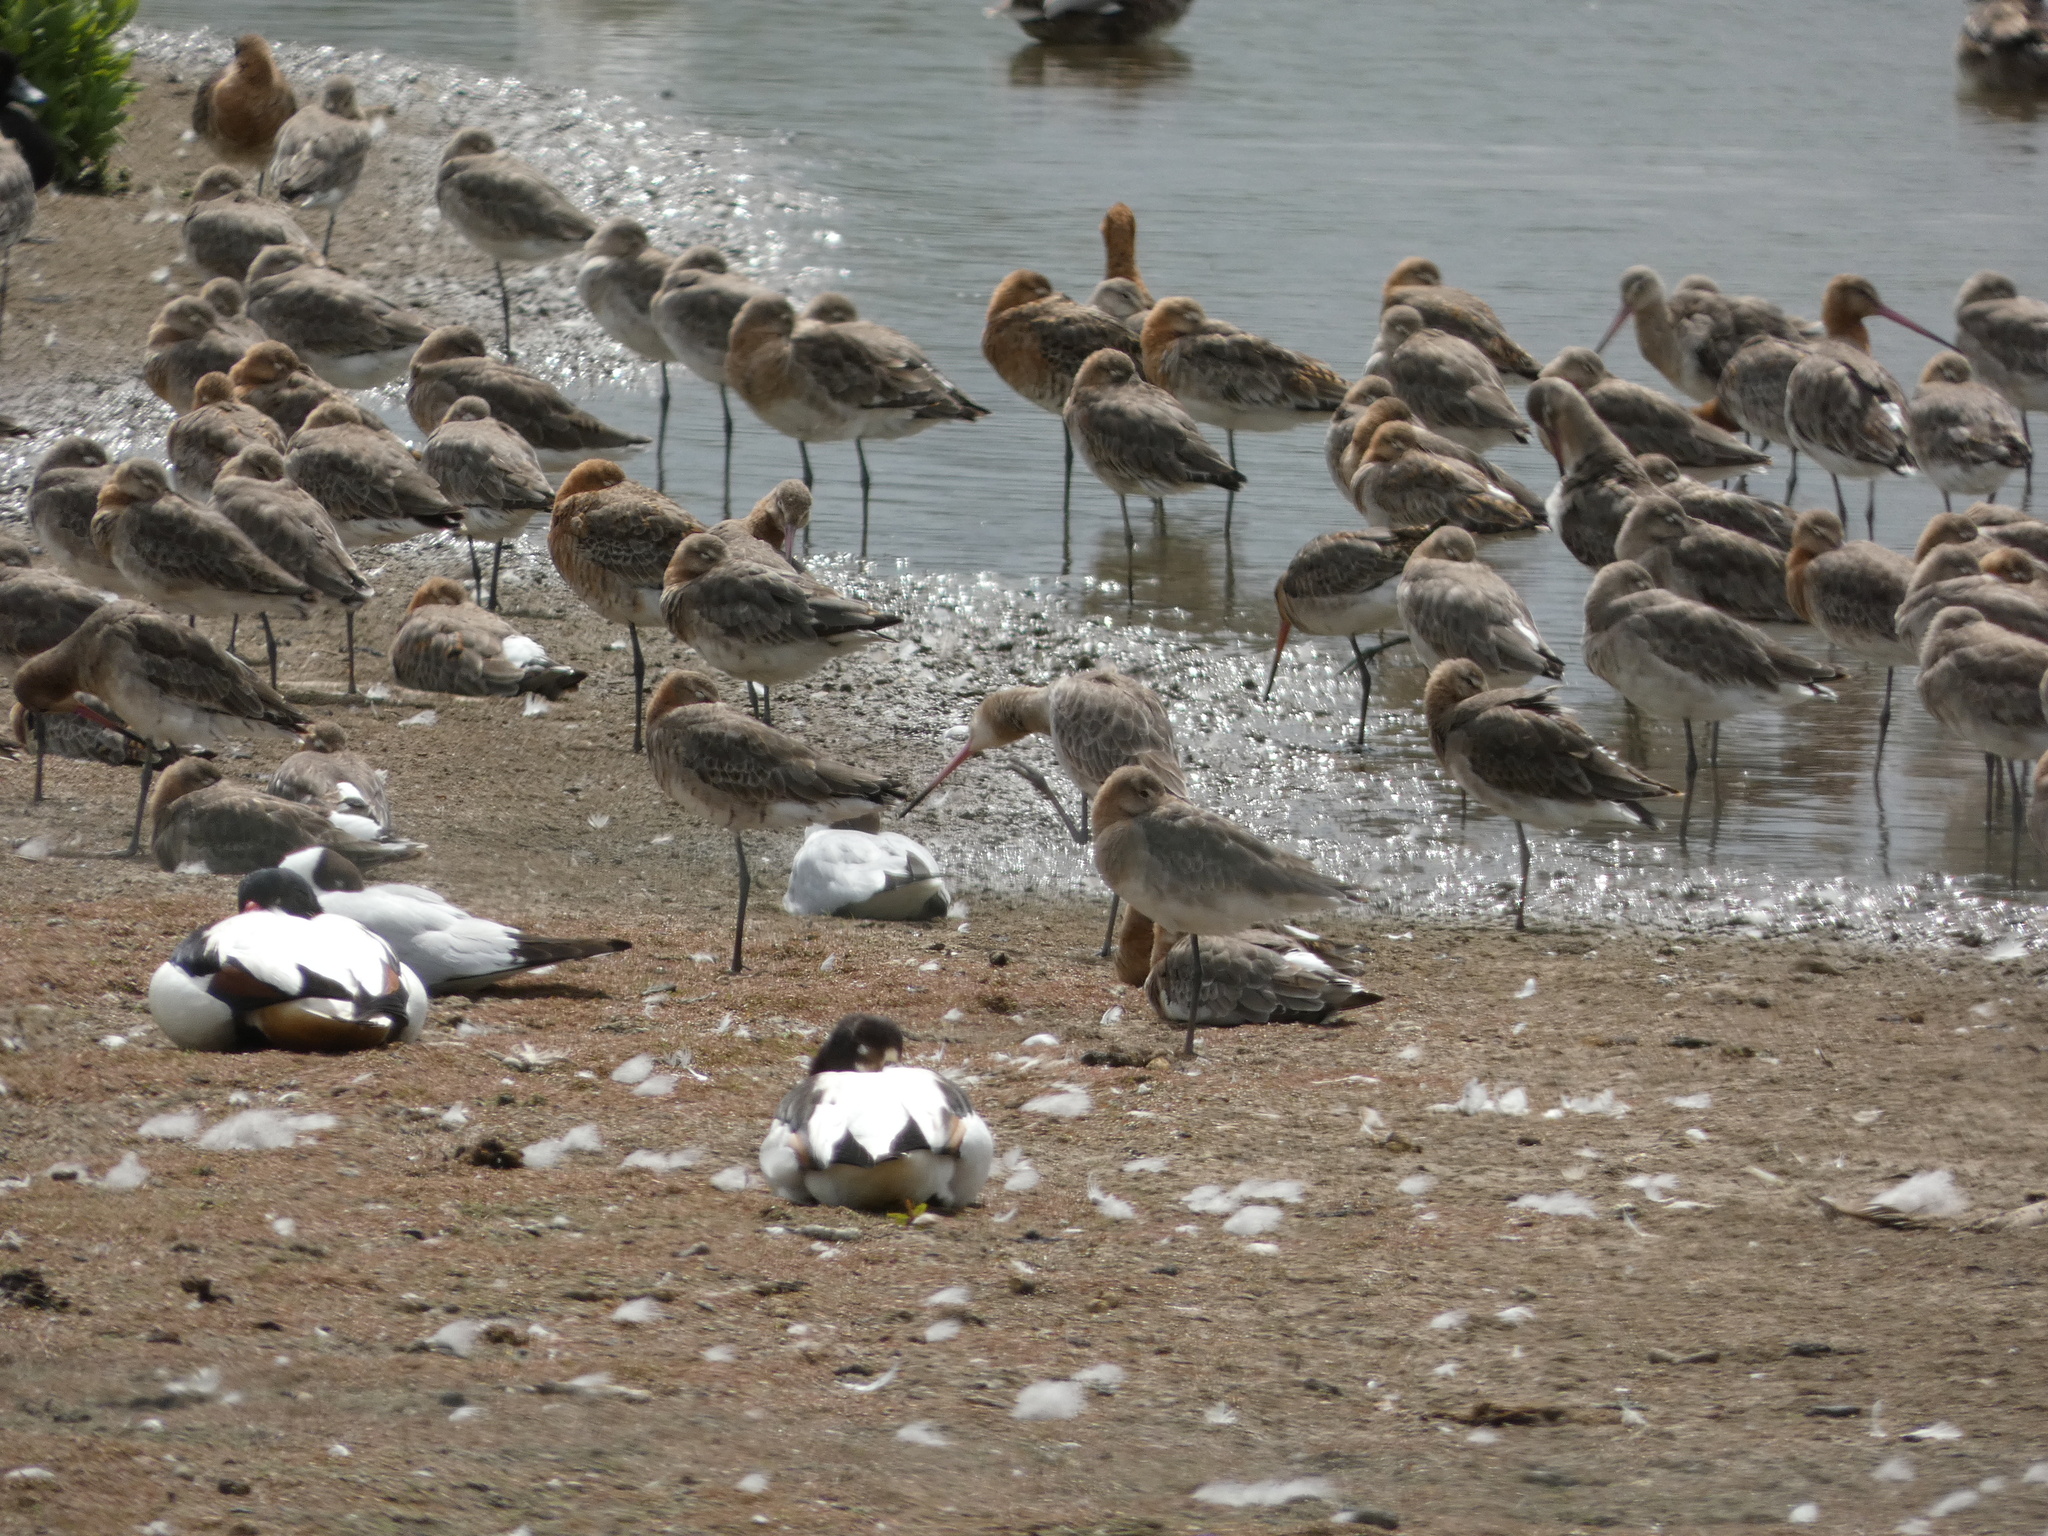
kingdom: Animalia
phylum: Chordata
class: Aves
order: Charadriiformes
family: Scolopacidae
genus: Limosa
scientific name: Limosa limosa
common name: Black-tailed godwit
